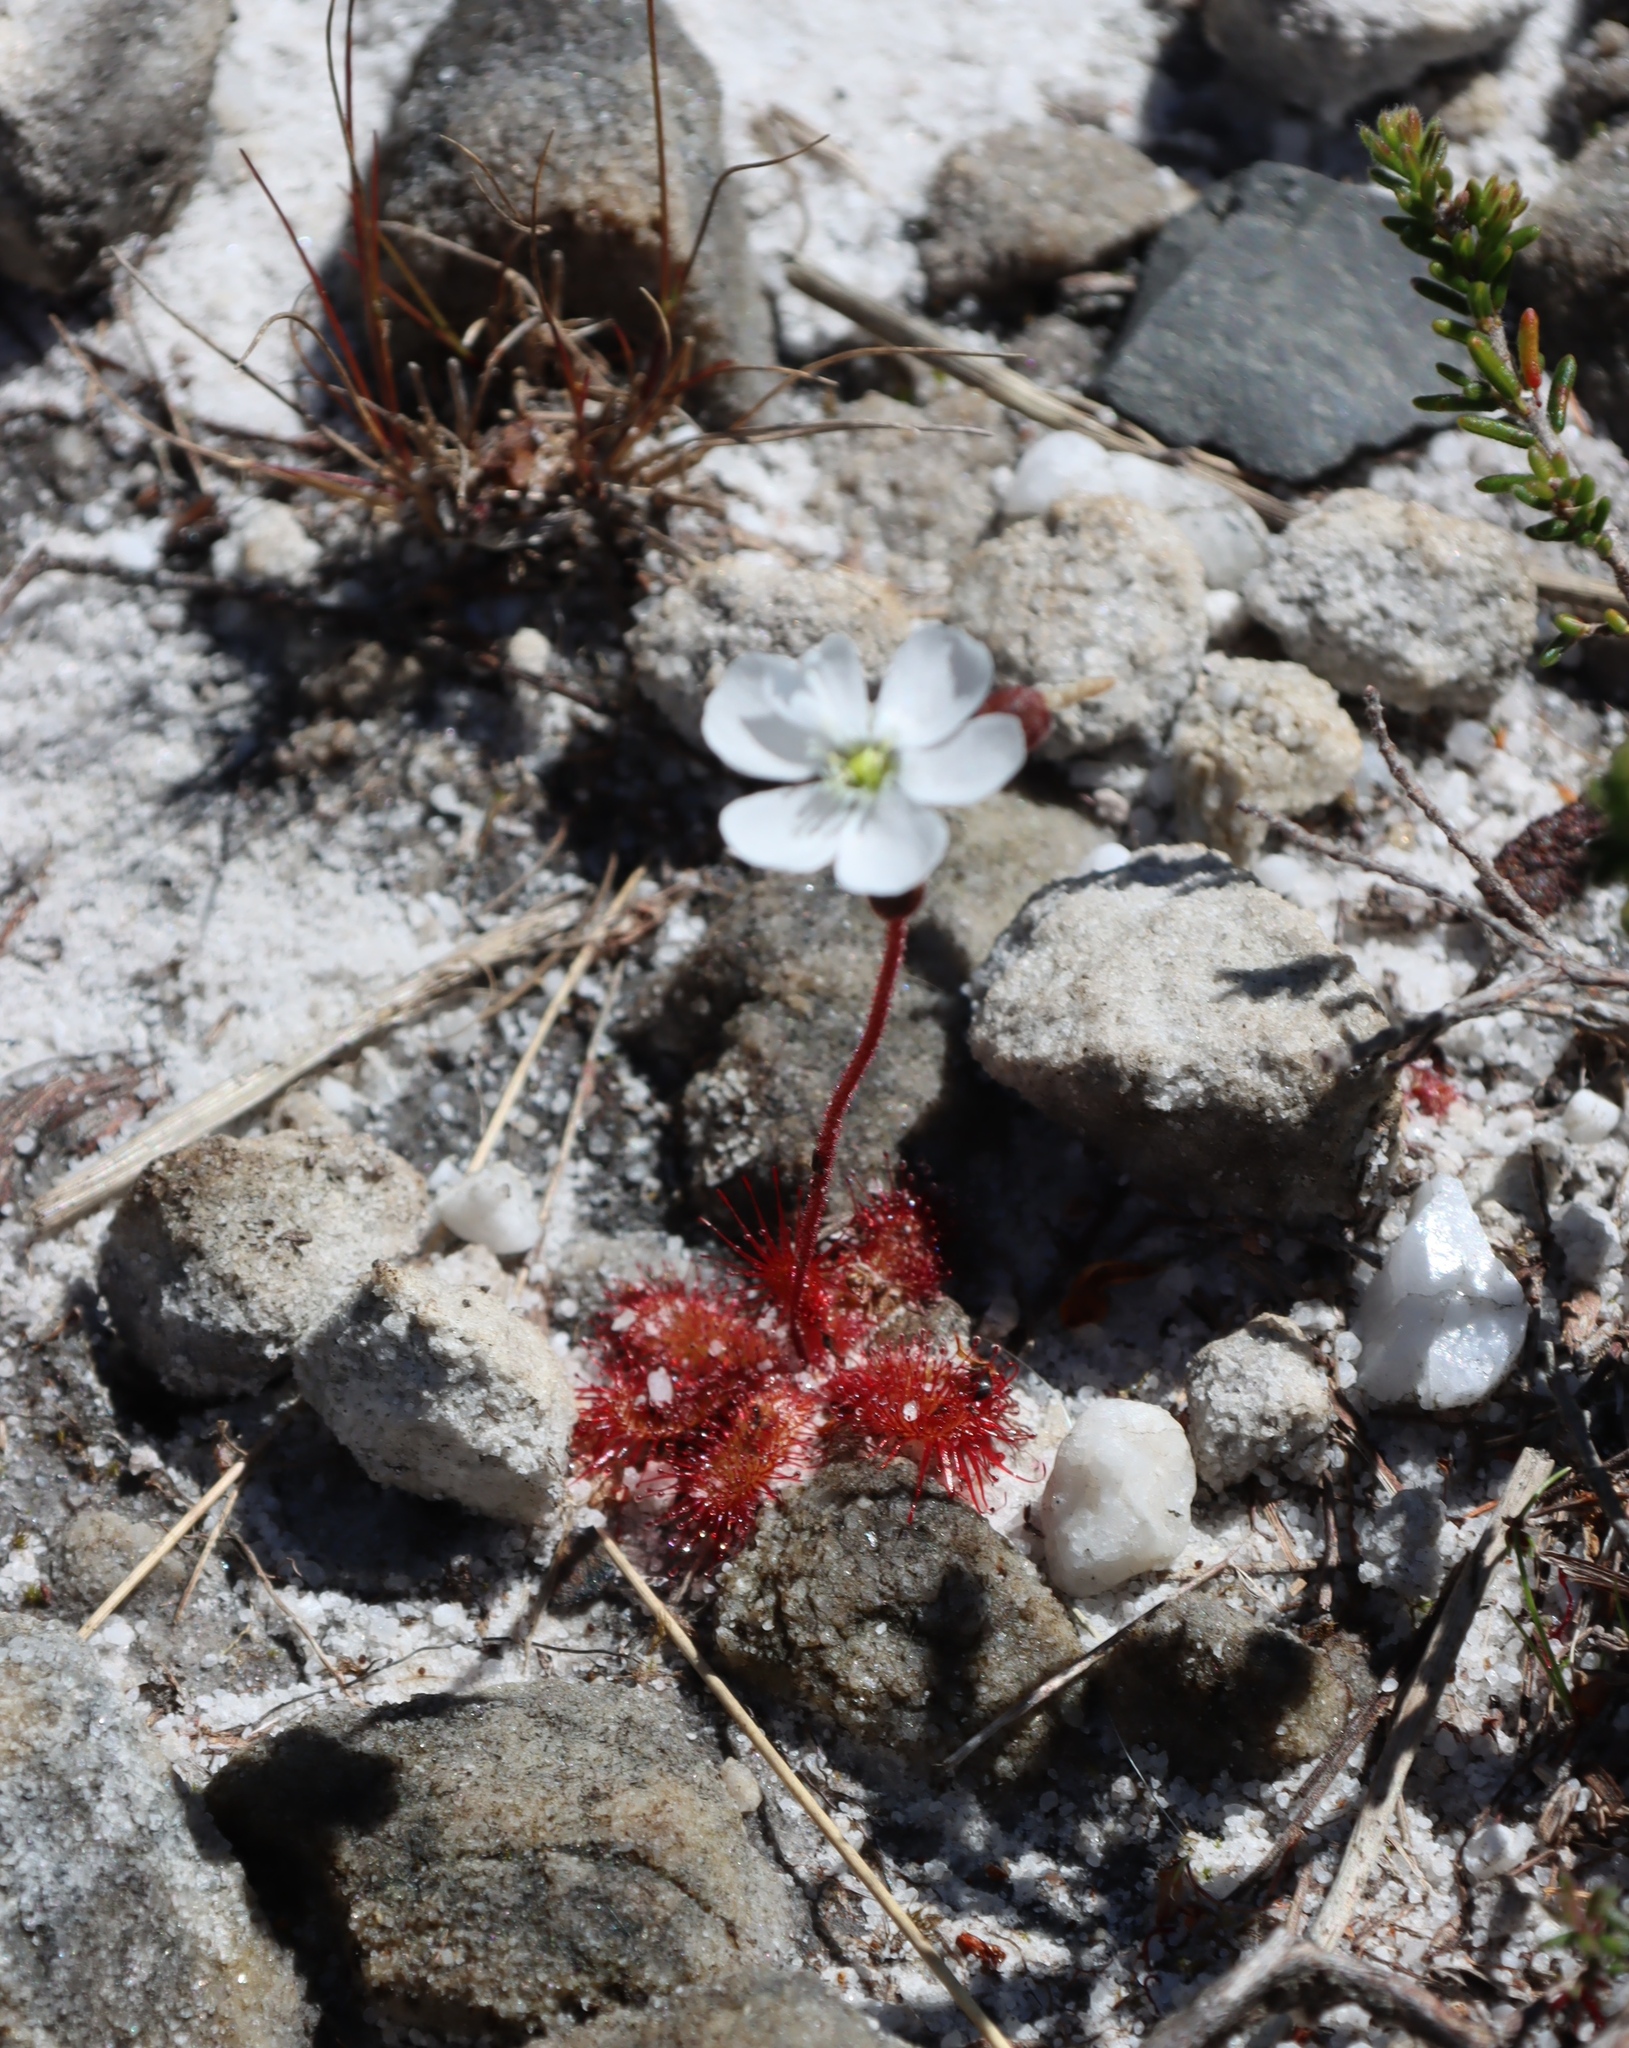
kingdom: Plantae
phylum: Tracheophyta
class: Magnoliopsida
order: Caryophyllales
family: Droseraceae
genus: Drosera
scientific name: Drosera trinervia
